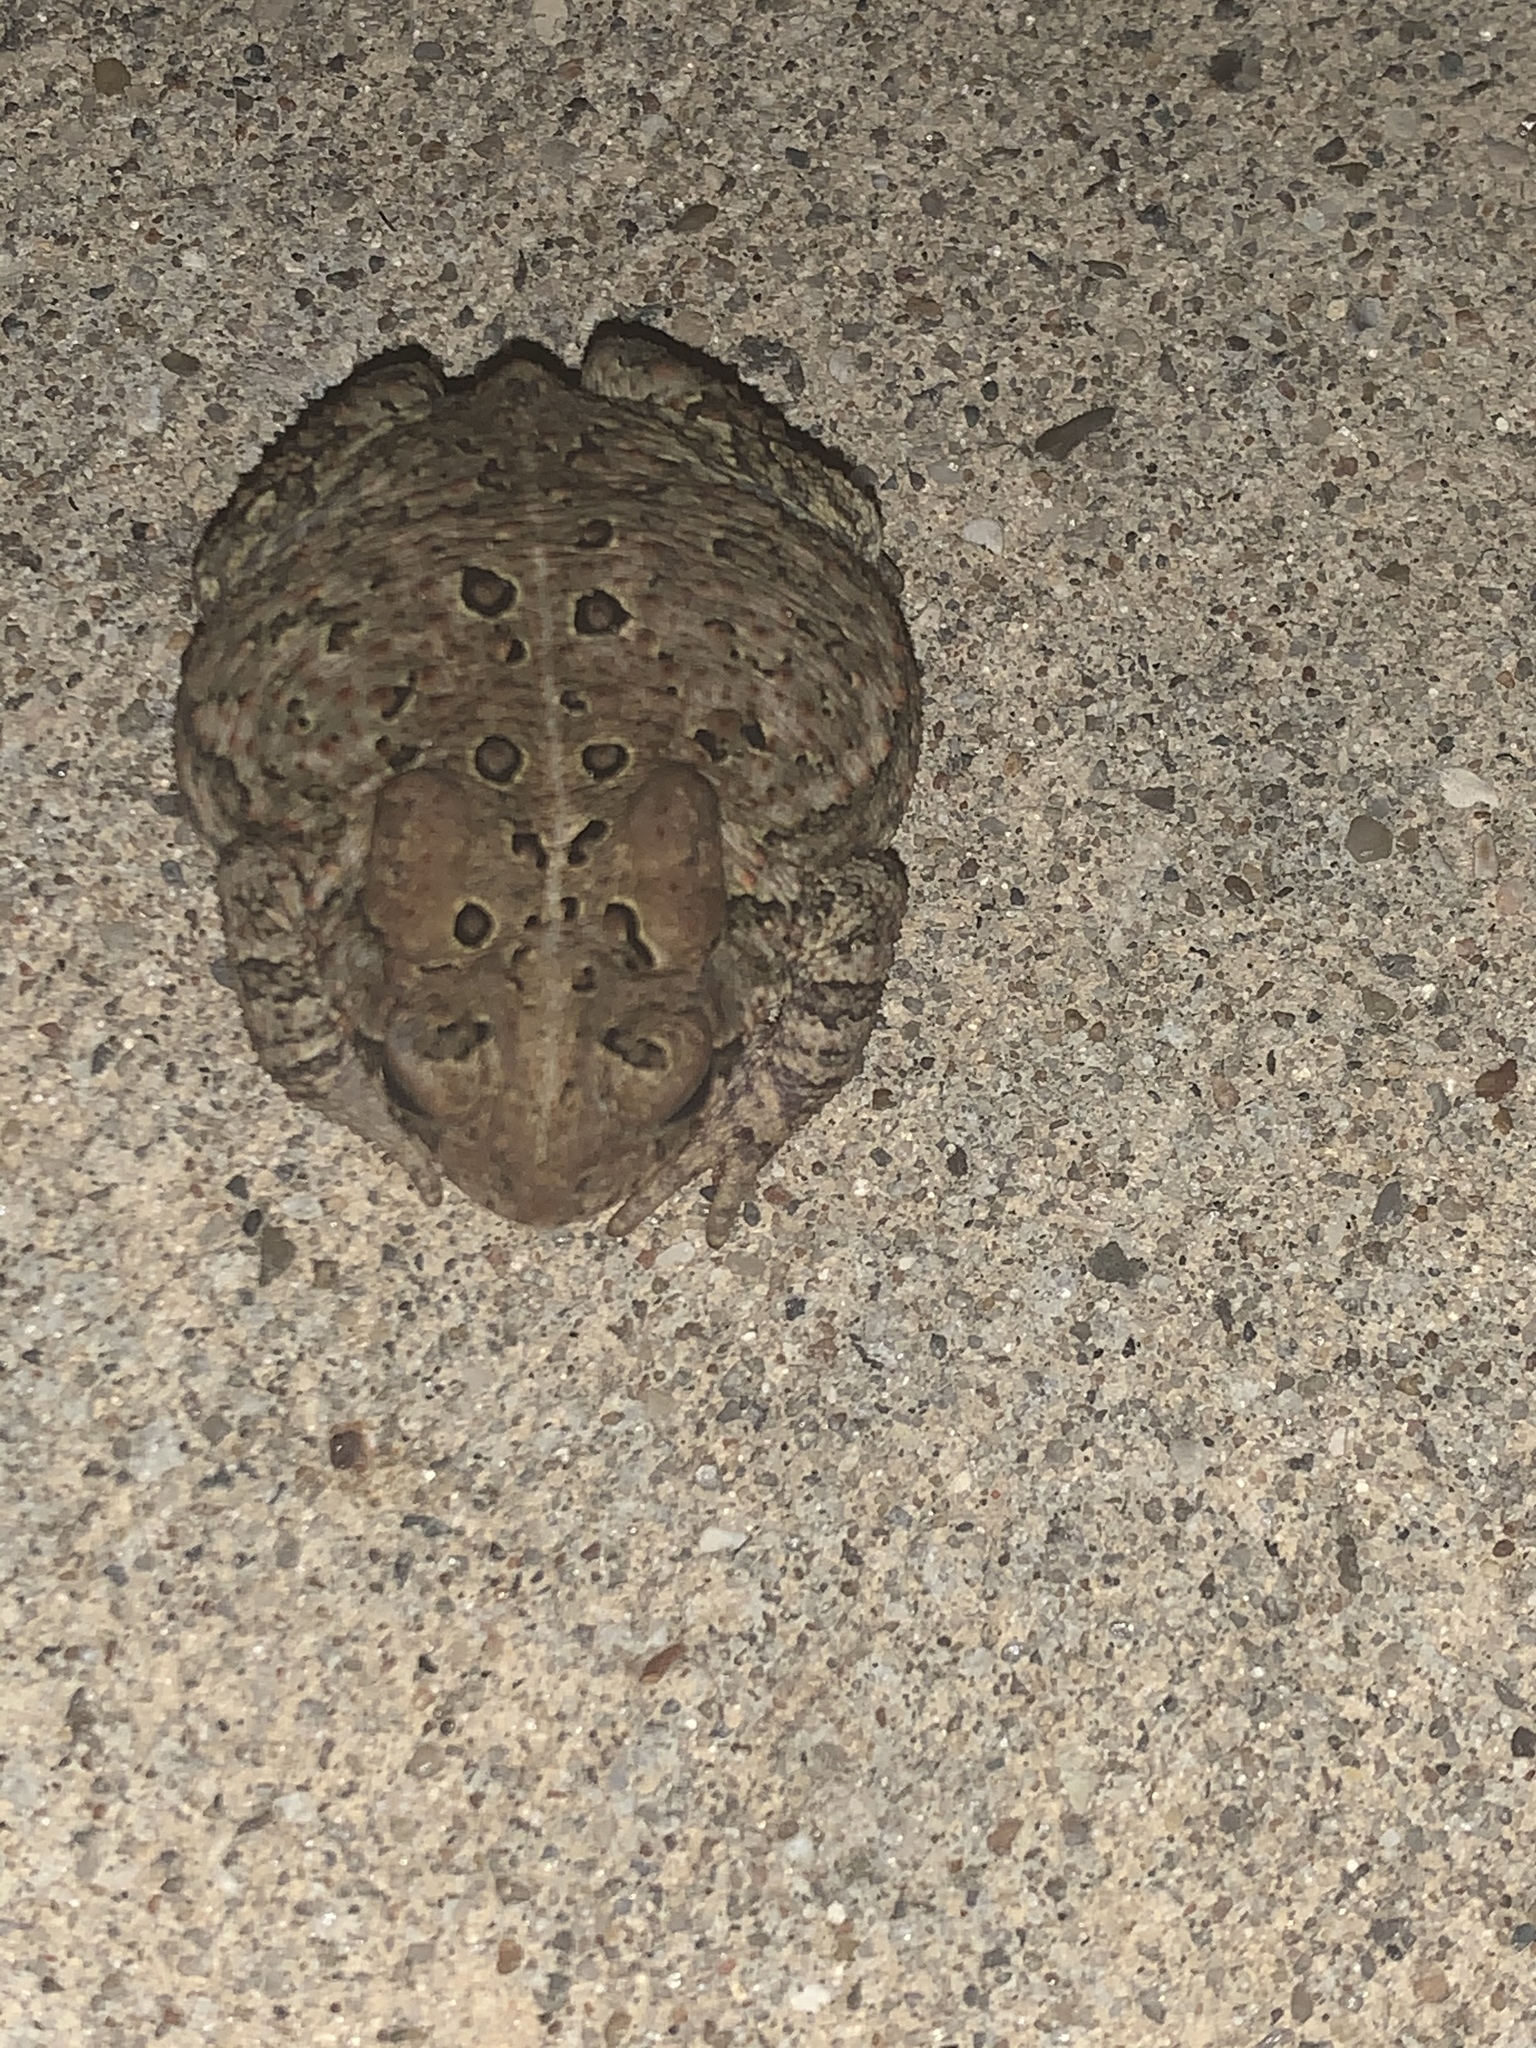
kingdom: Animalia
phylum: Chordata
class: Amphibia
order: Anura
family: Bufonidae
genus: Anaxyrus
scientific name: Anaxyrus americanus
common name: American toad
